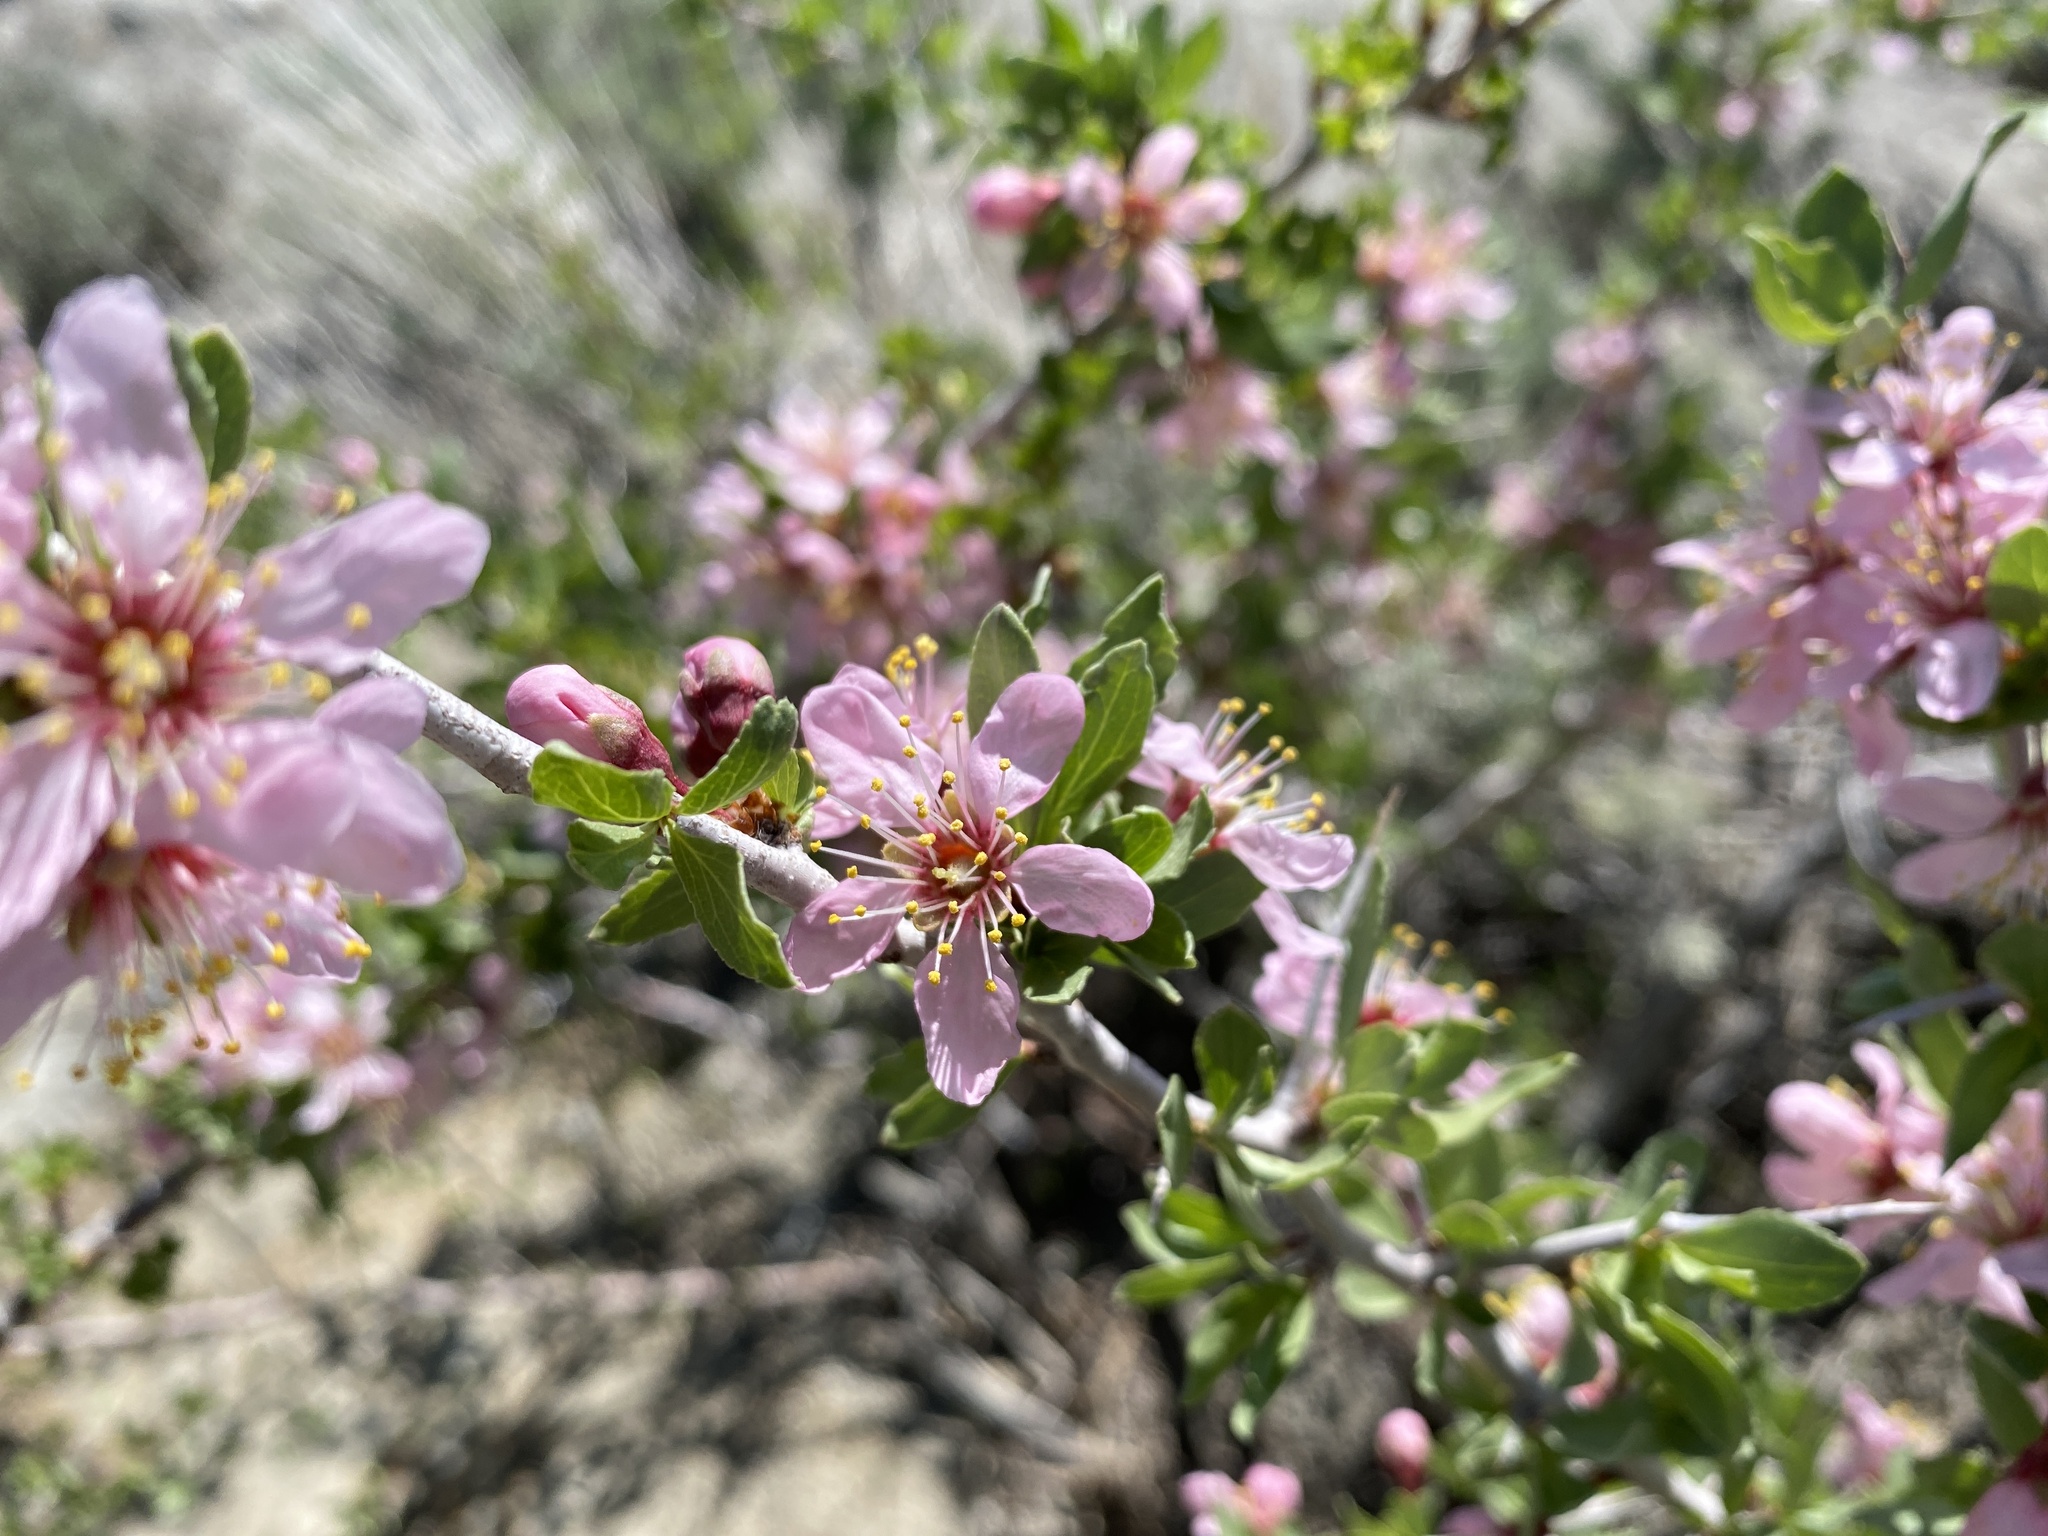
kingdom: Plantae
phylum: Tracheophyta
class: Magnoliopsida
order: Rosales
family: Rosaceae
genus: Prunus
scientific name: Prunus andersonii
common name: Desert peach
